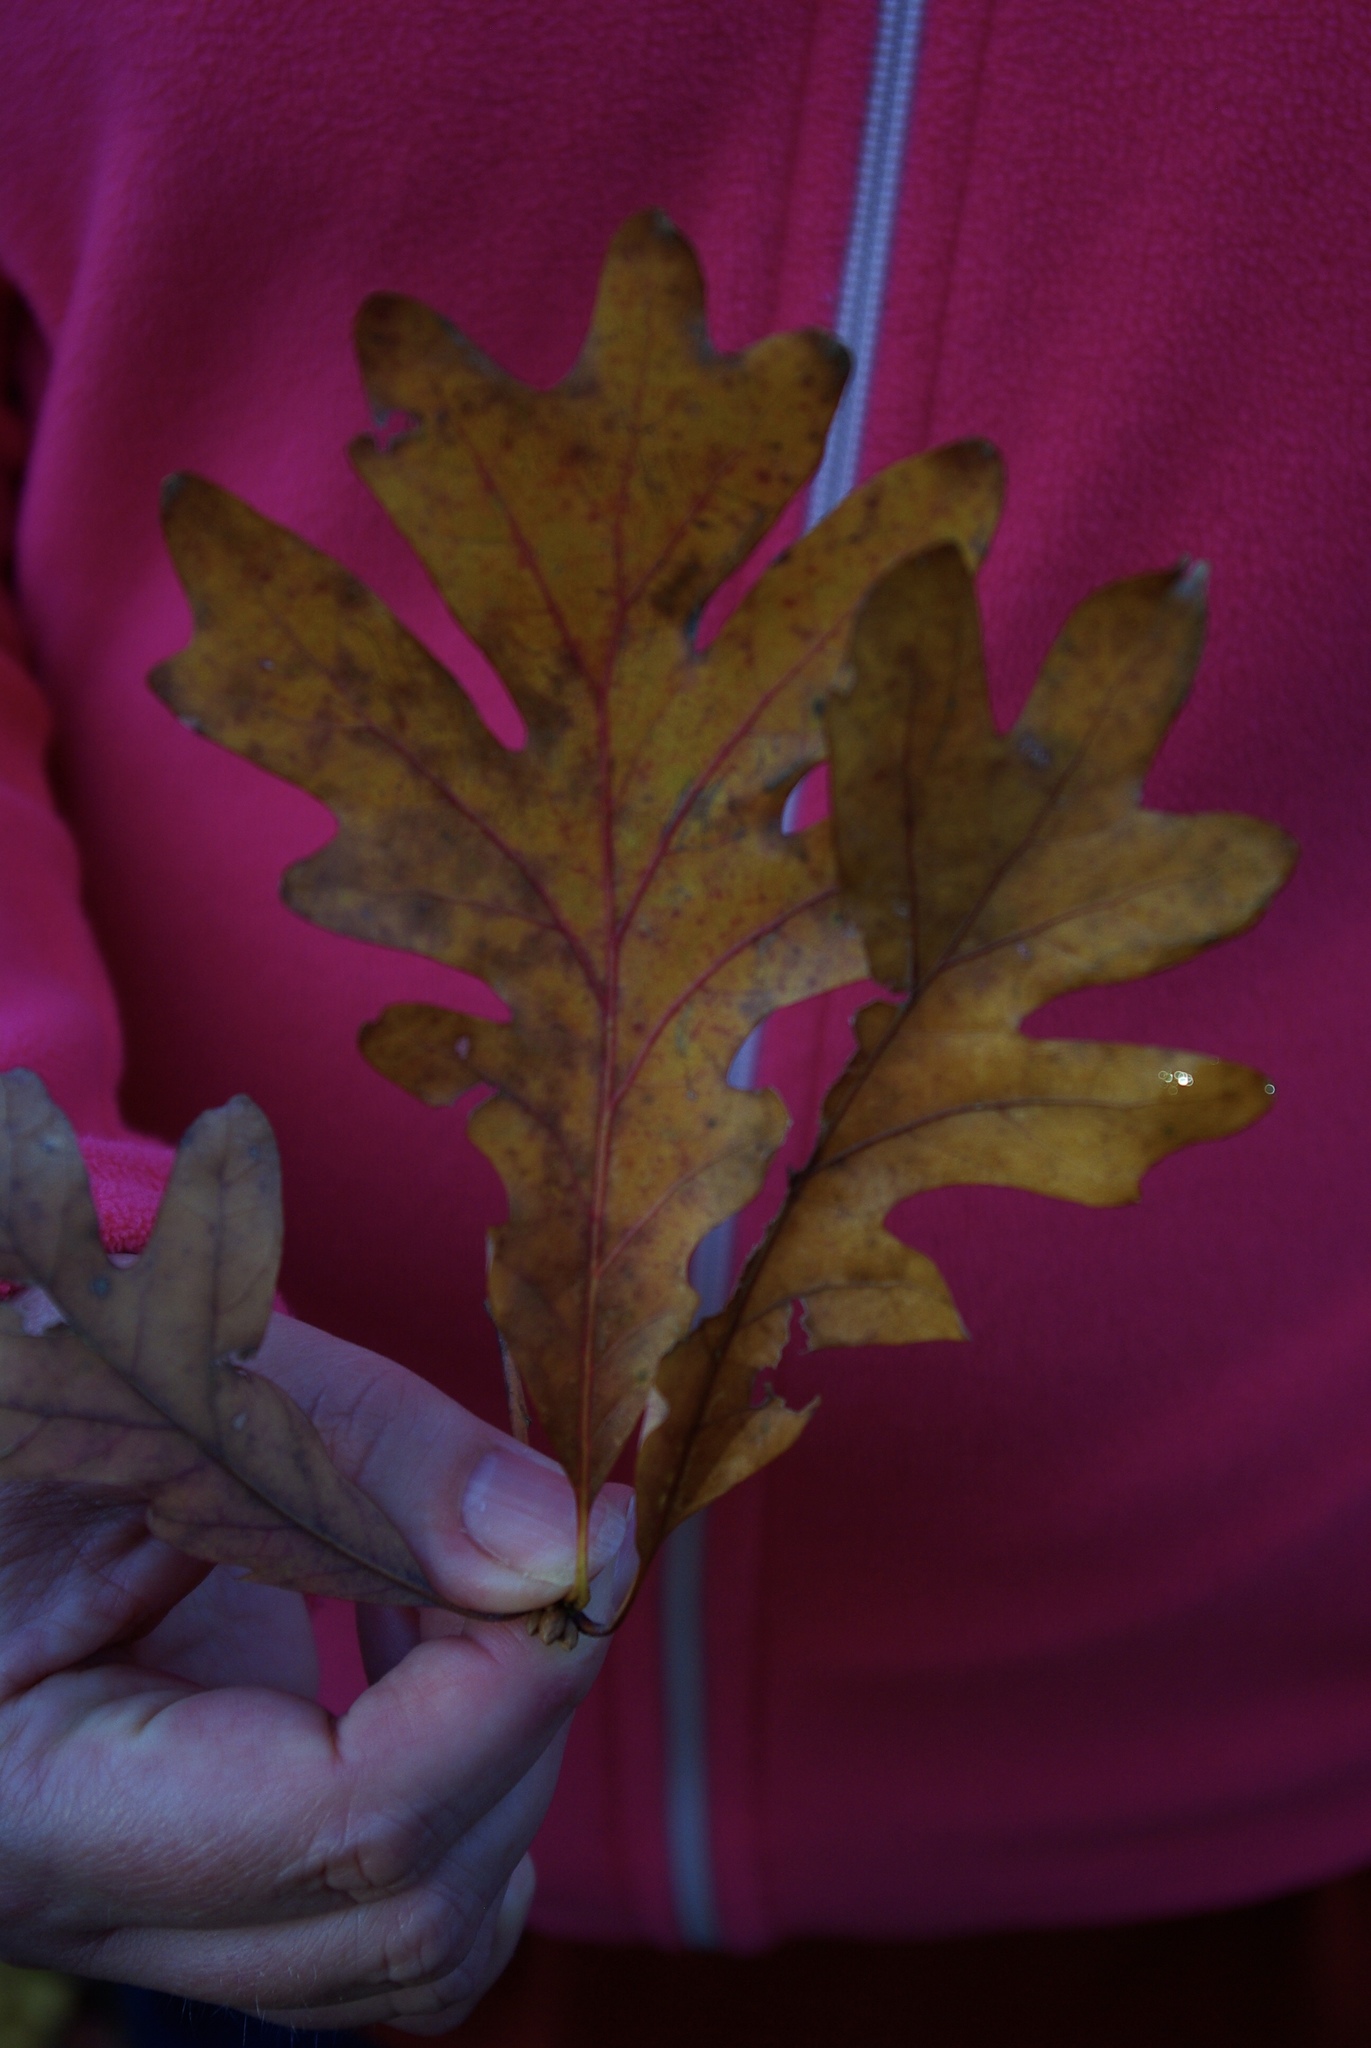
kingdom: Plantae
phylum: Tracheophyta
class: Magnoliopsida
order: Fagales
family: Fagaceae
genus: Quercus
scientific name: Quercus alba
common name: White oak
